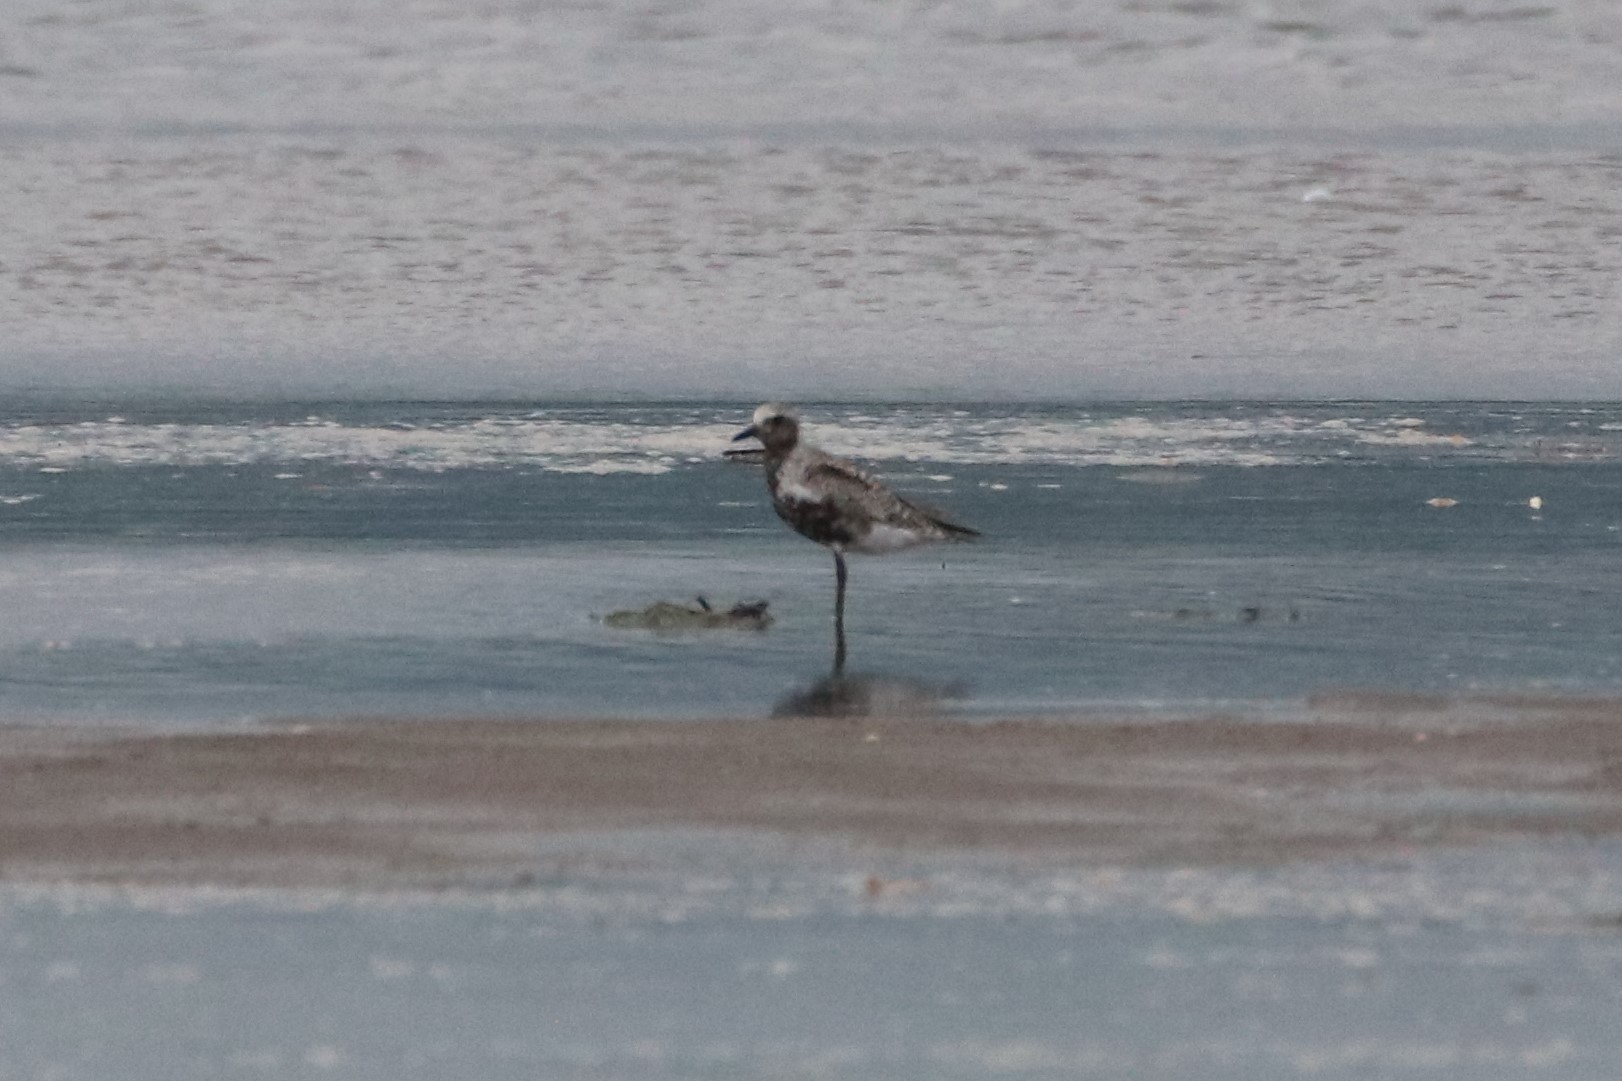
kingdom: Animalia
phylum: Chordata
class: Aves
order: Charadriiformes
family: Charadriidae
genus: Pluvialis
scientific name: Pluvialis squatarola
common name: Grey plover
